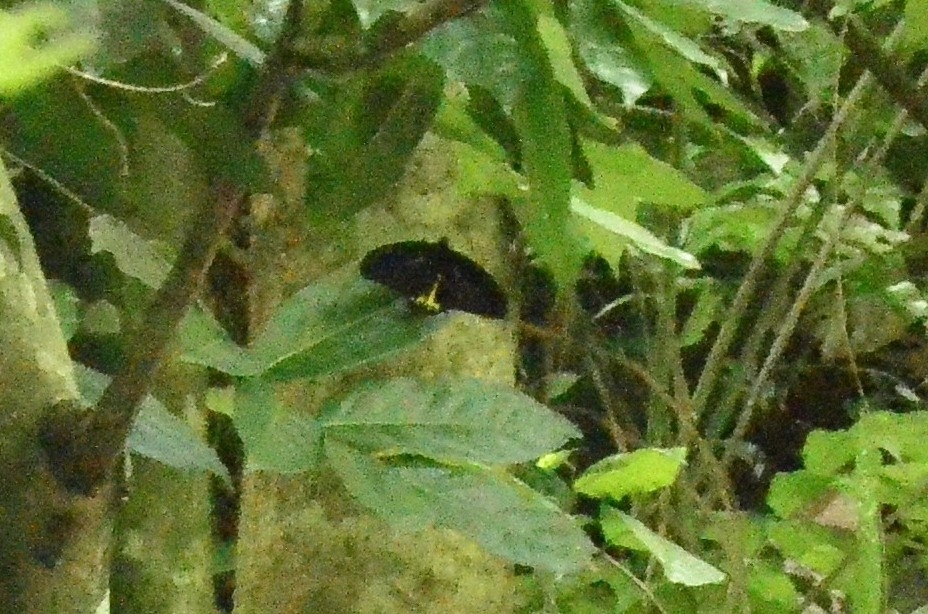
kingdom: Animalia
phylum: Arthropoda
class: Insecta
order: Lepidoptera
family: Papilionidae
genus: Troides
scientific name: Troides minos
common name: Malabar birdwing
